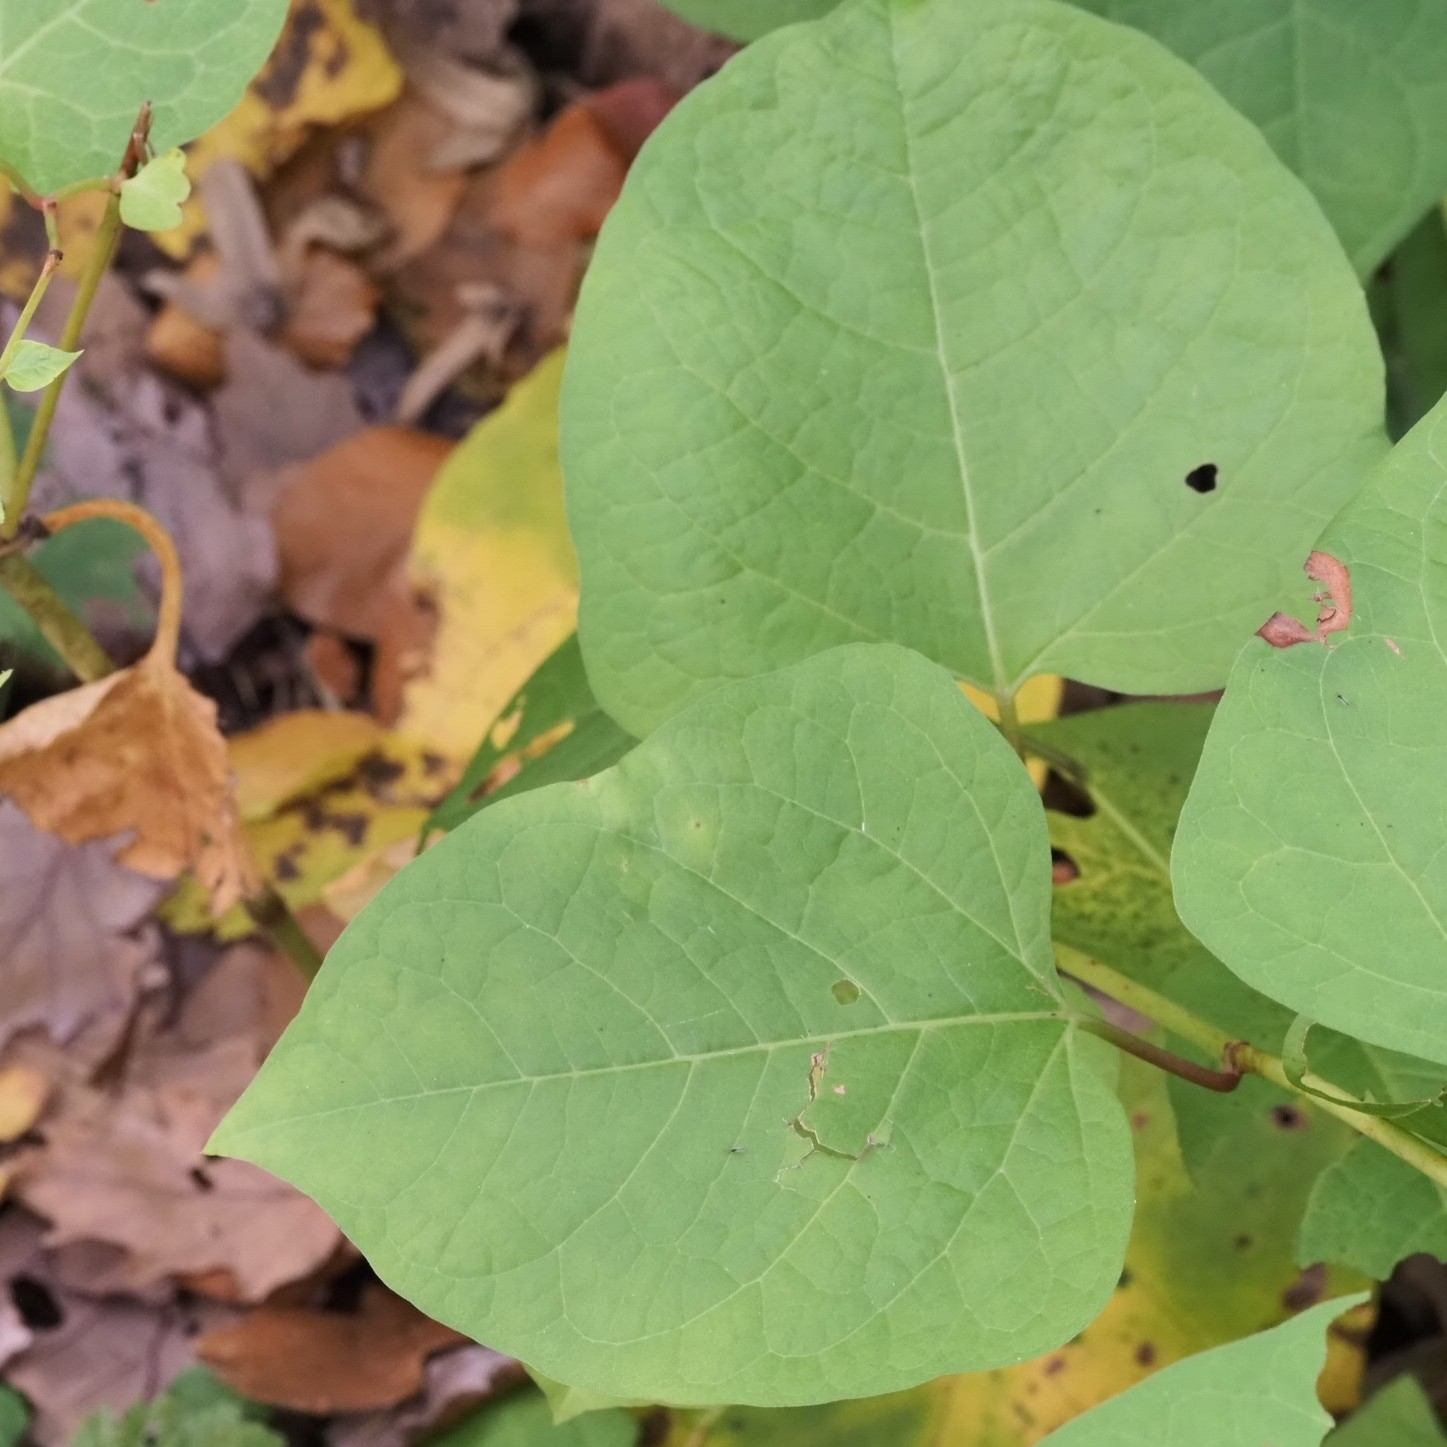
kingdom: Plantae
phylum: Tracheophyta
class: Magnoliopsida
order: Caryophyllales
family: Polygonaceae
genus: Reynoutria
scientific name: Reynoutria bohemica
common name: Bohemian knotweed
